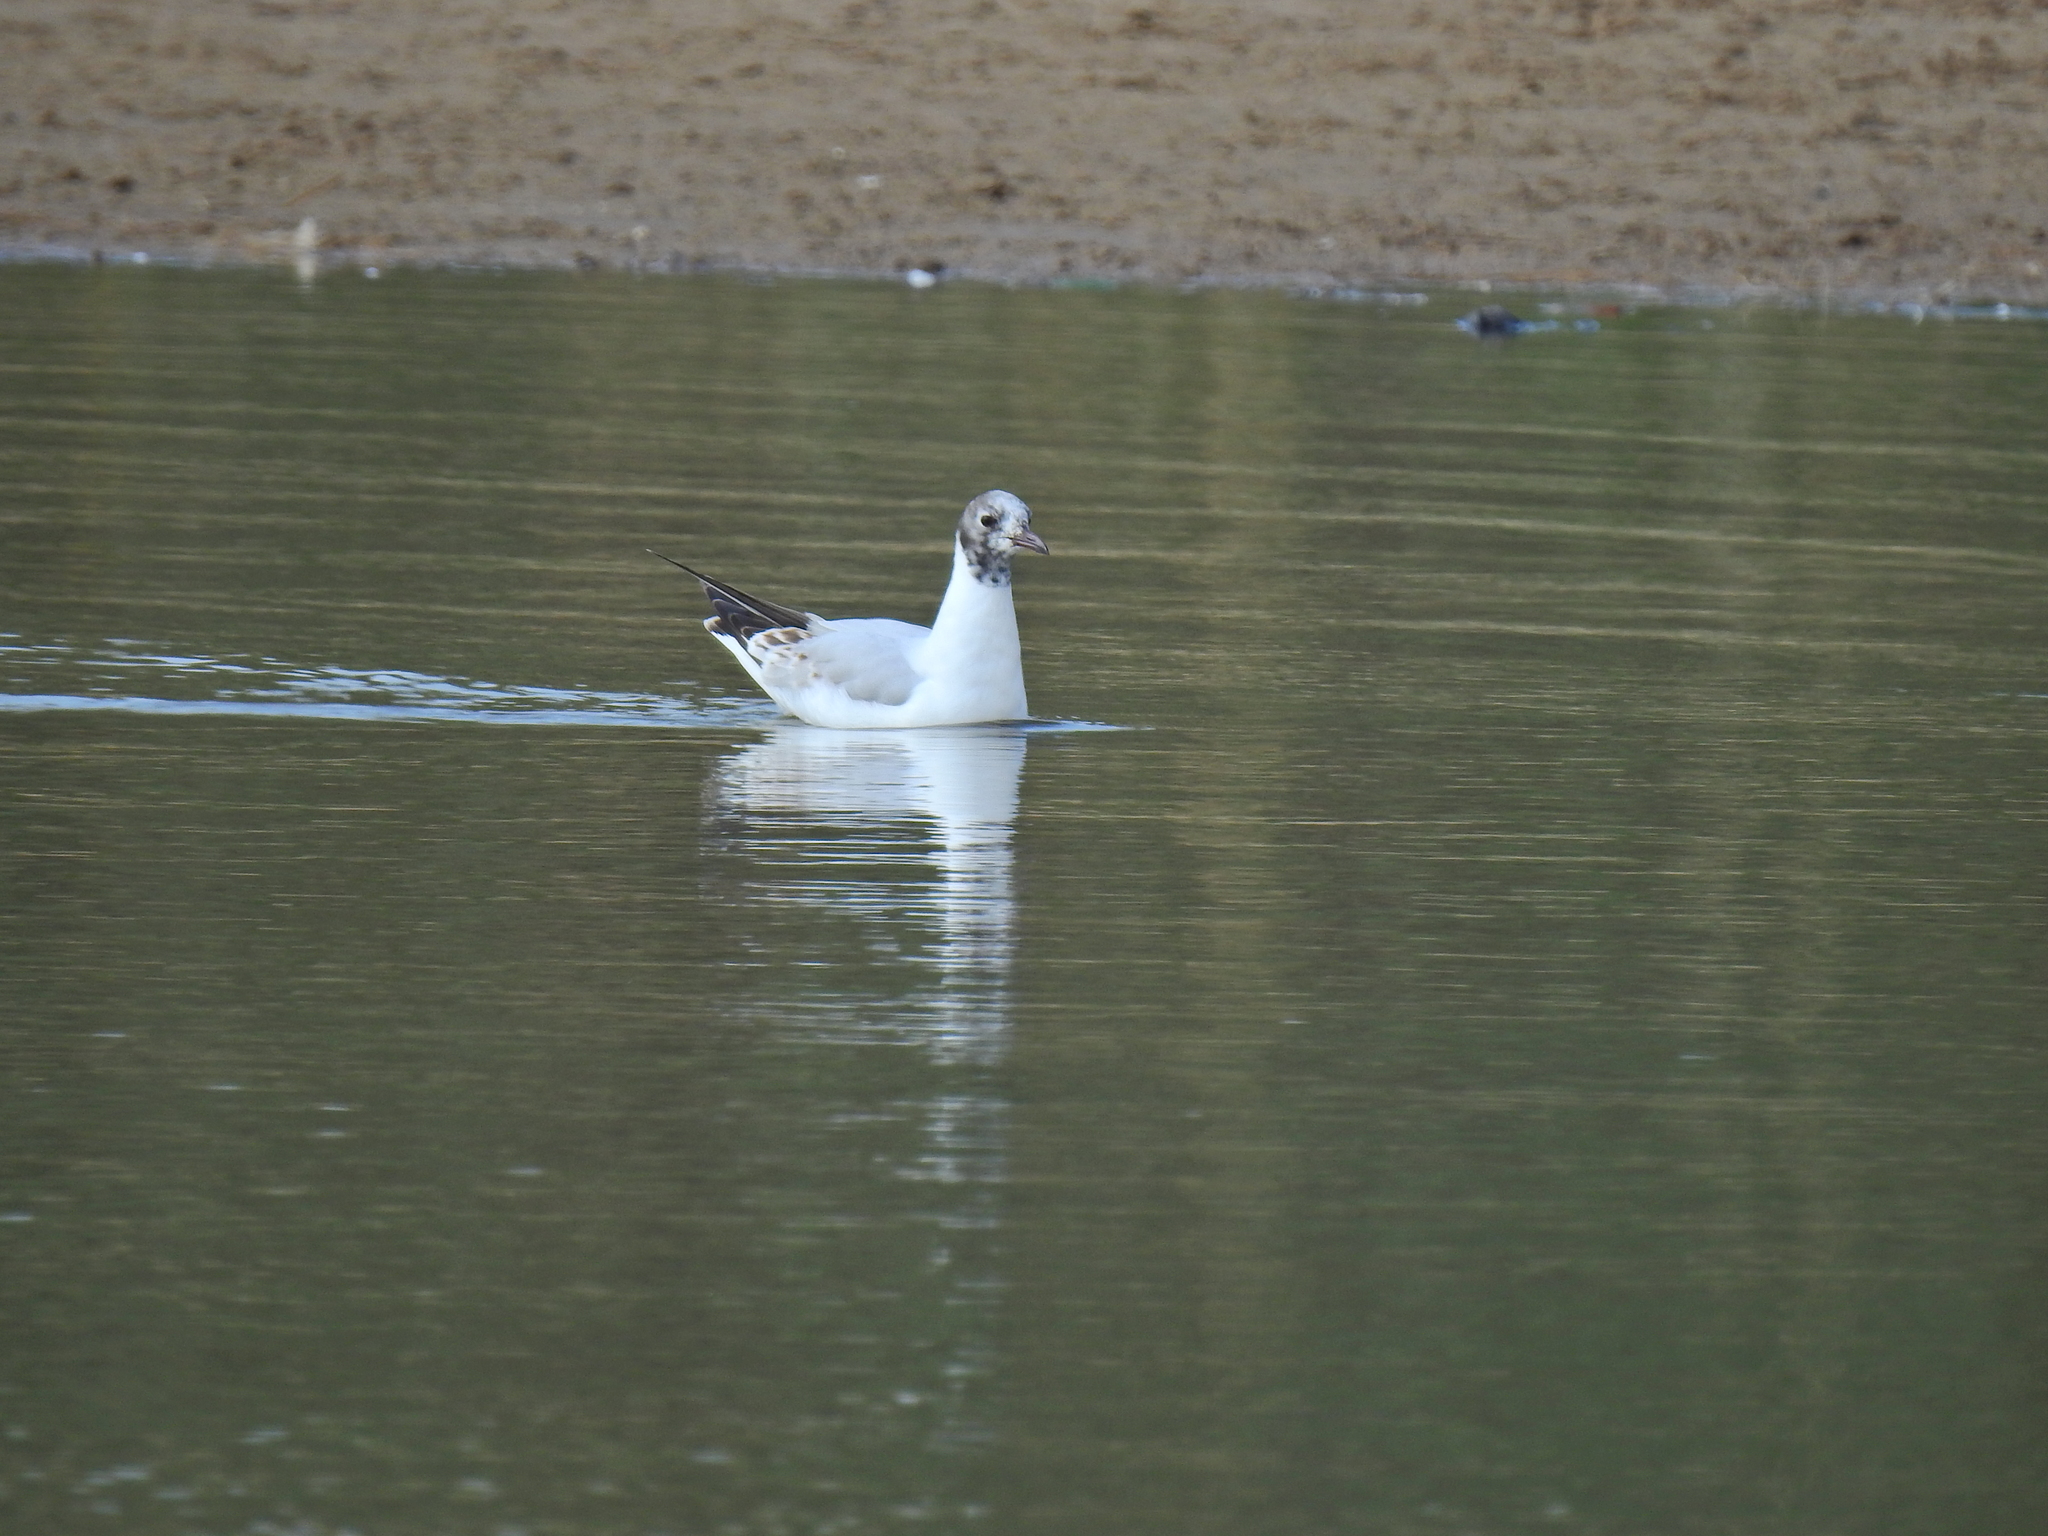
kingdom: Animalia
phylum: Chordata
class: Aves
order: Charadriiformes
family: Laridae
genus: Chroicocephalus
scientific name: Chroicocephalus ridibundus
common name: Black-headed gull
